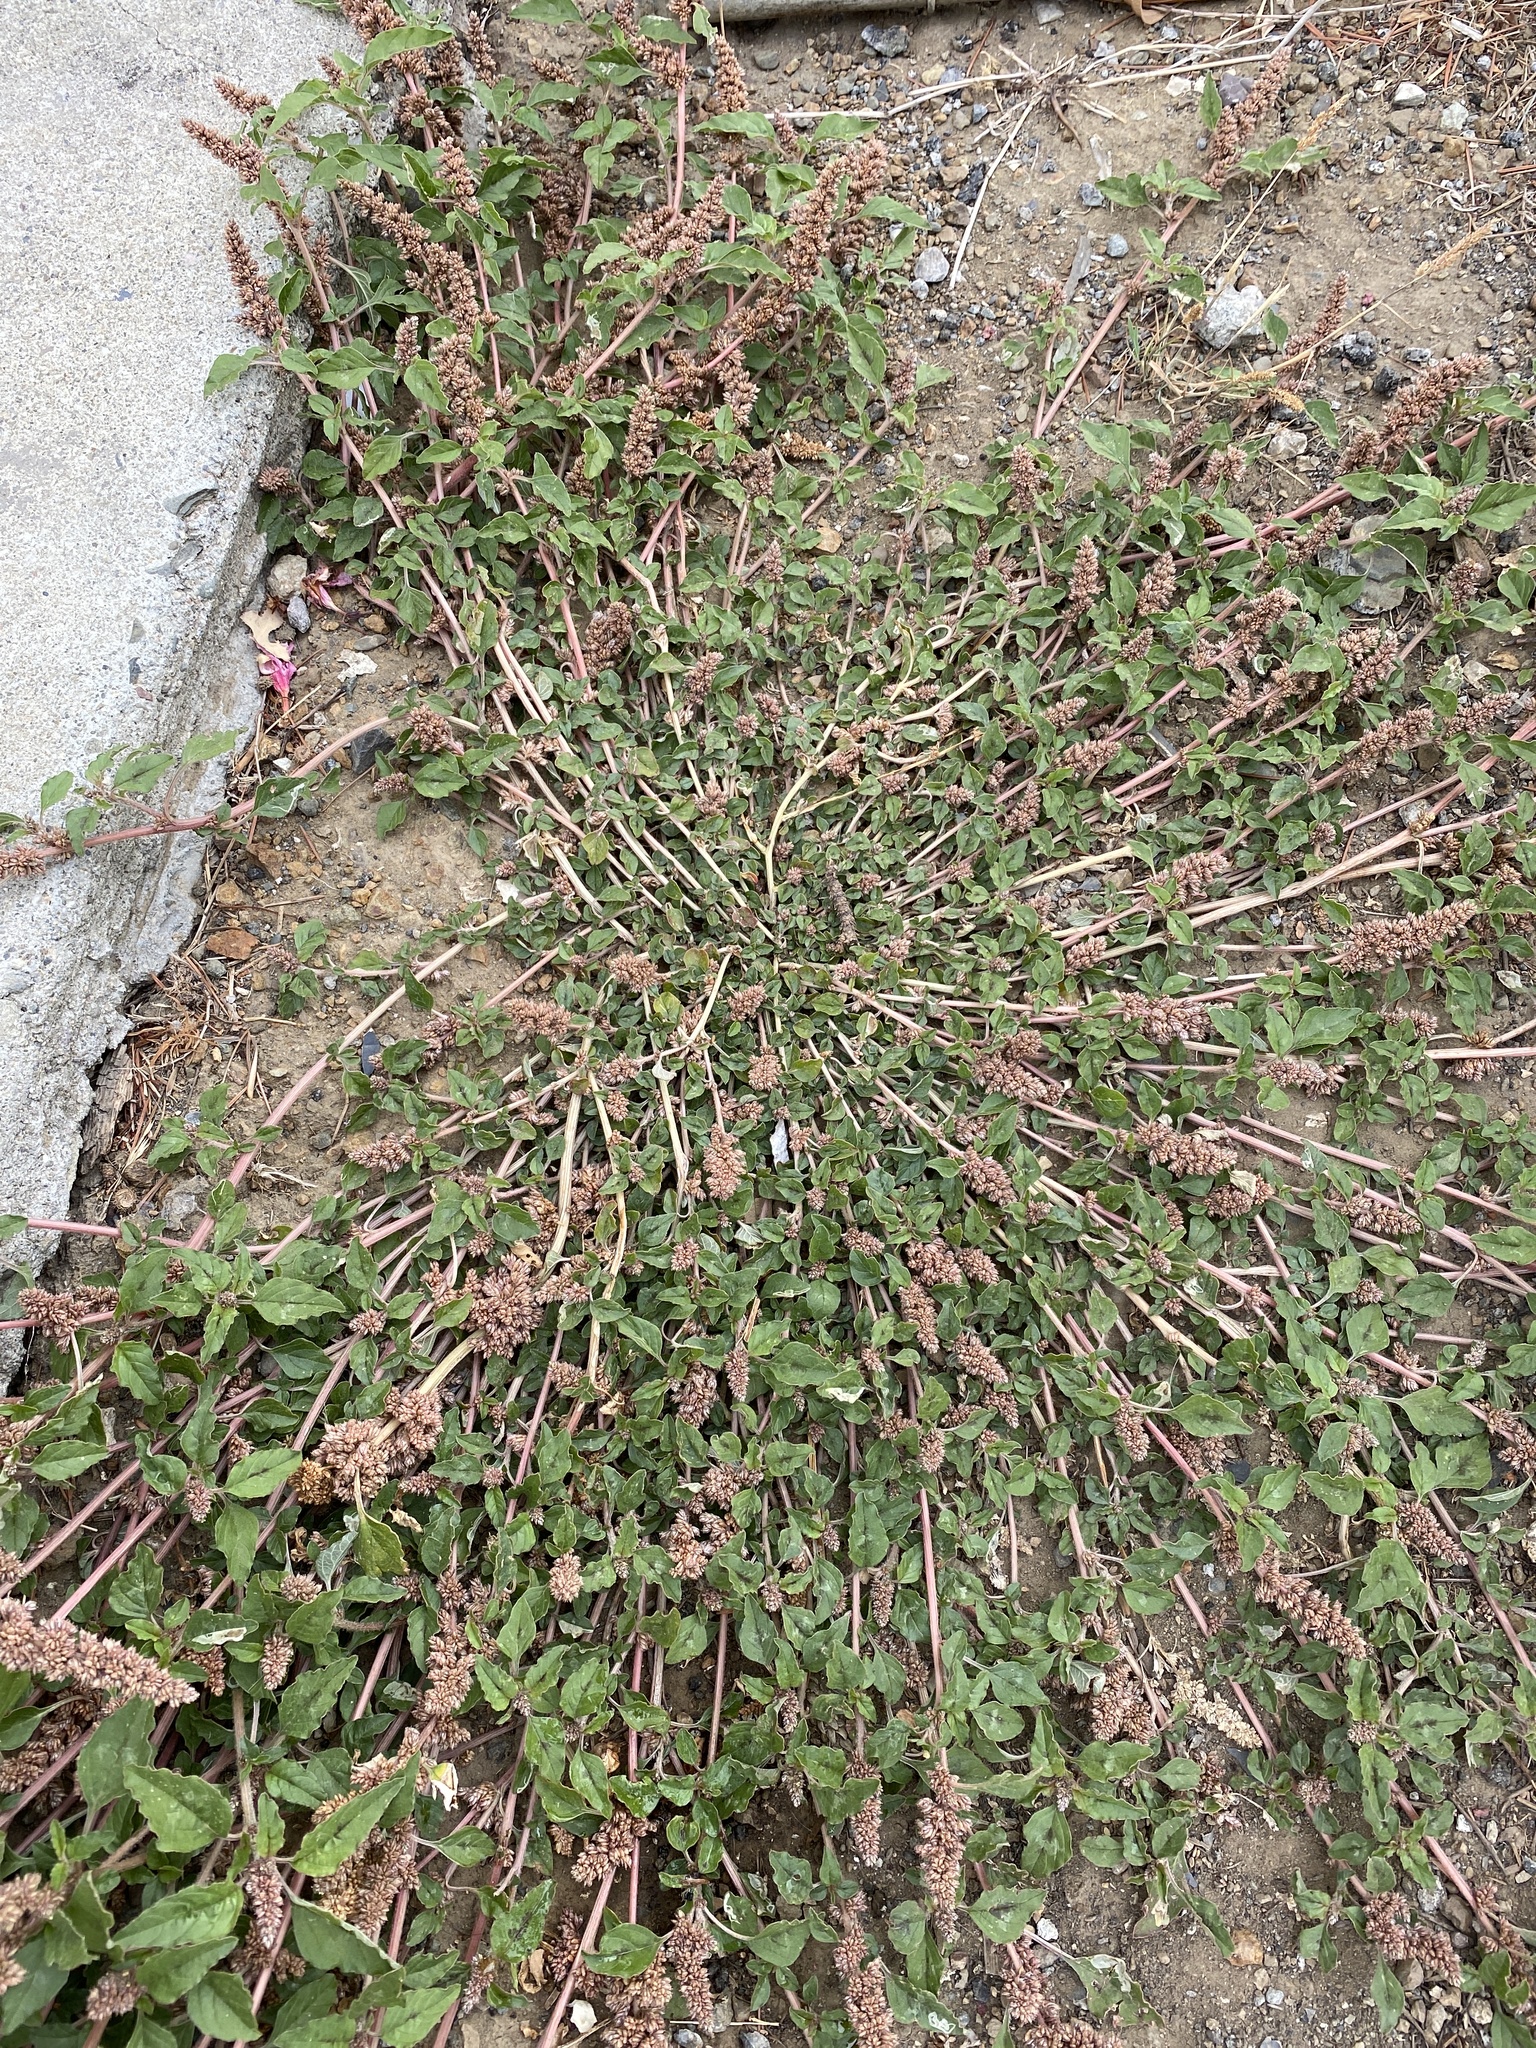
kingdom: Plantae
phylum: Tracheophyta
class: Magnoliopsida
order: Caryophyllales
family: Amaranthaceae
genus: Amaranthus
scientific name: Amaranthus deflexus
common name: Perennial pigweed
